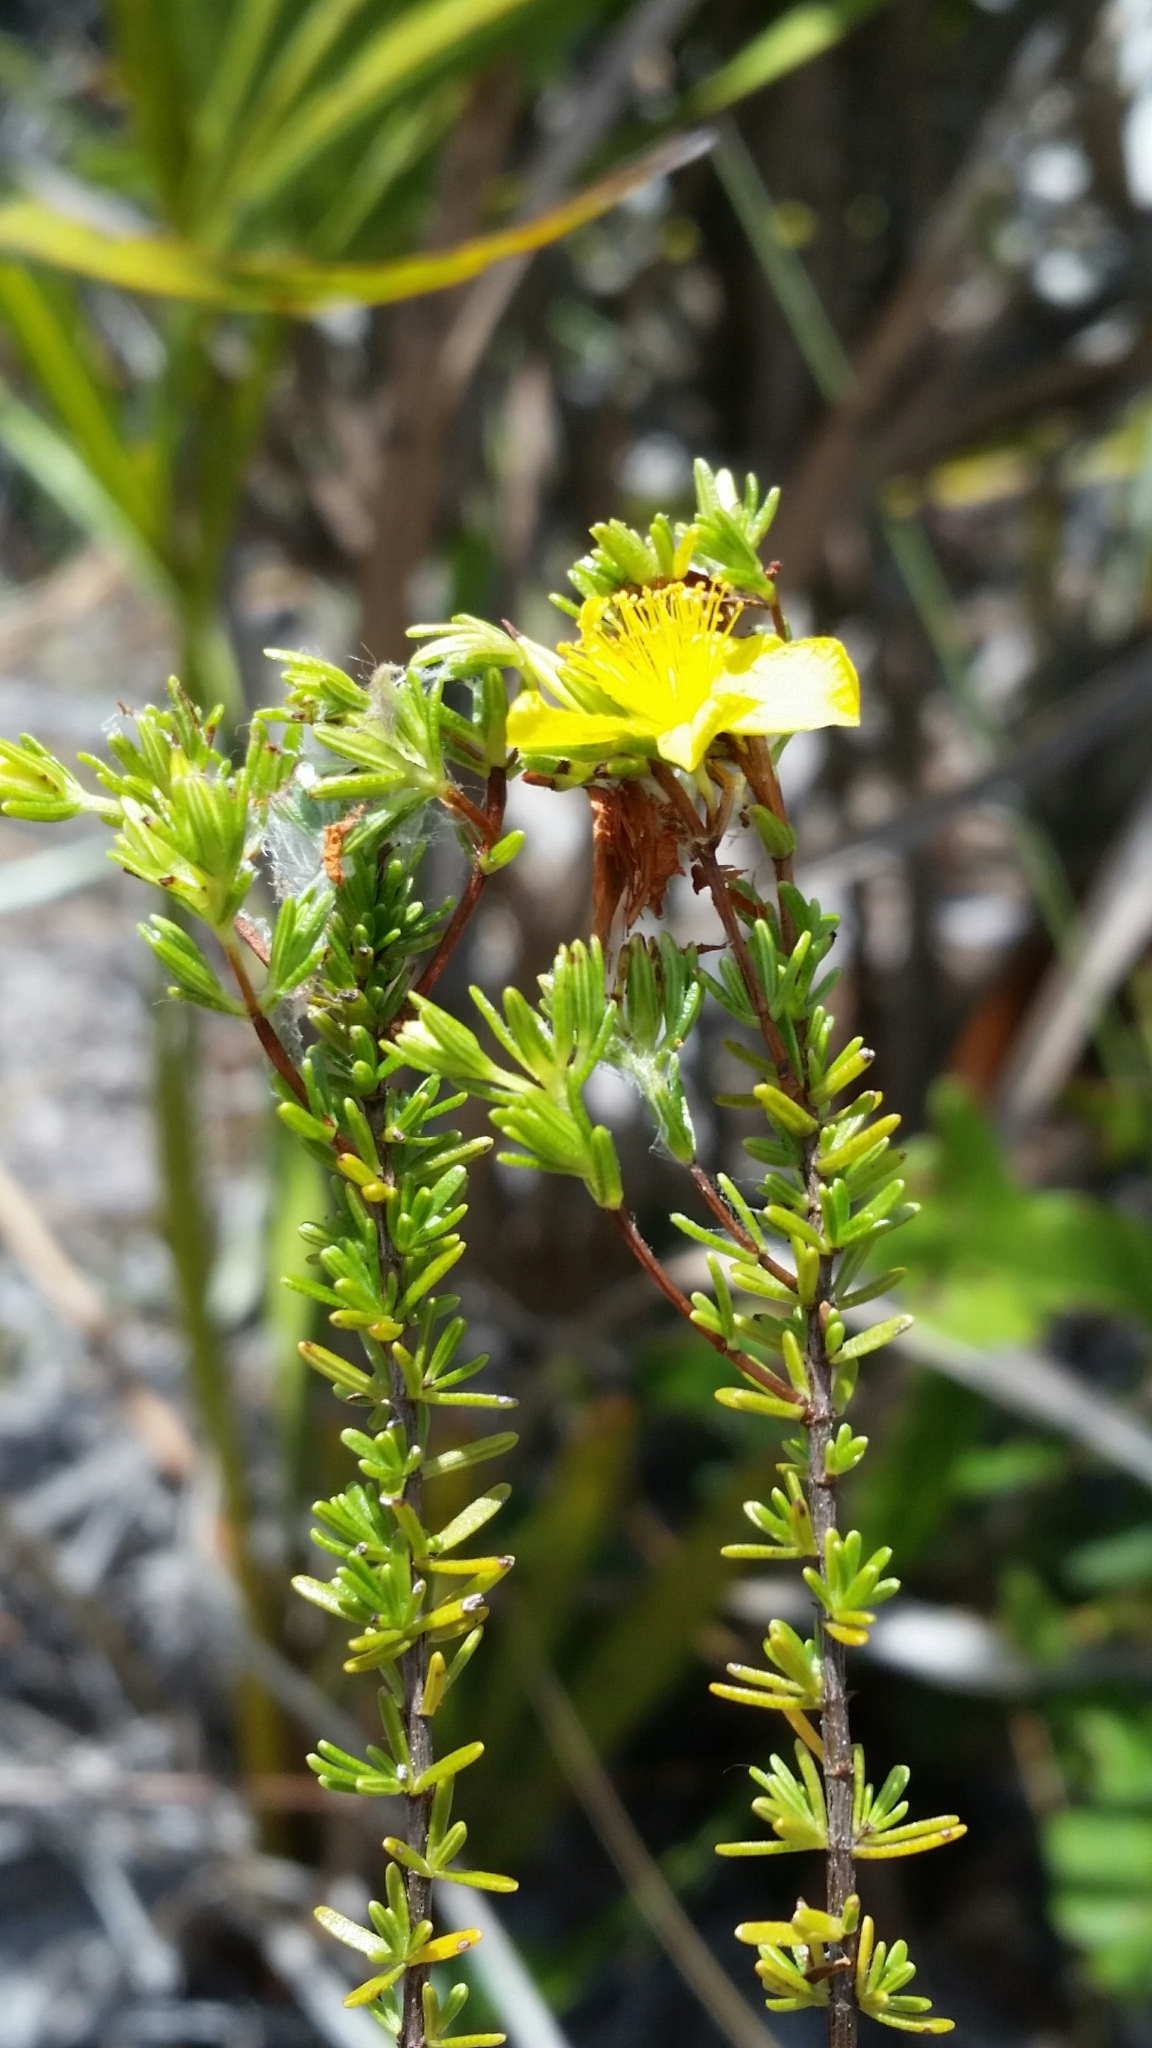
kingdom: Plantae
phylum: Tracheophyta
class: Magnoliopsida
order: Malpighiales
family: Hypericaceae
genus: Hypericum
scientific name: Hypericum tenuifolium
